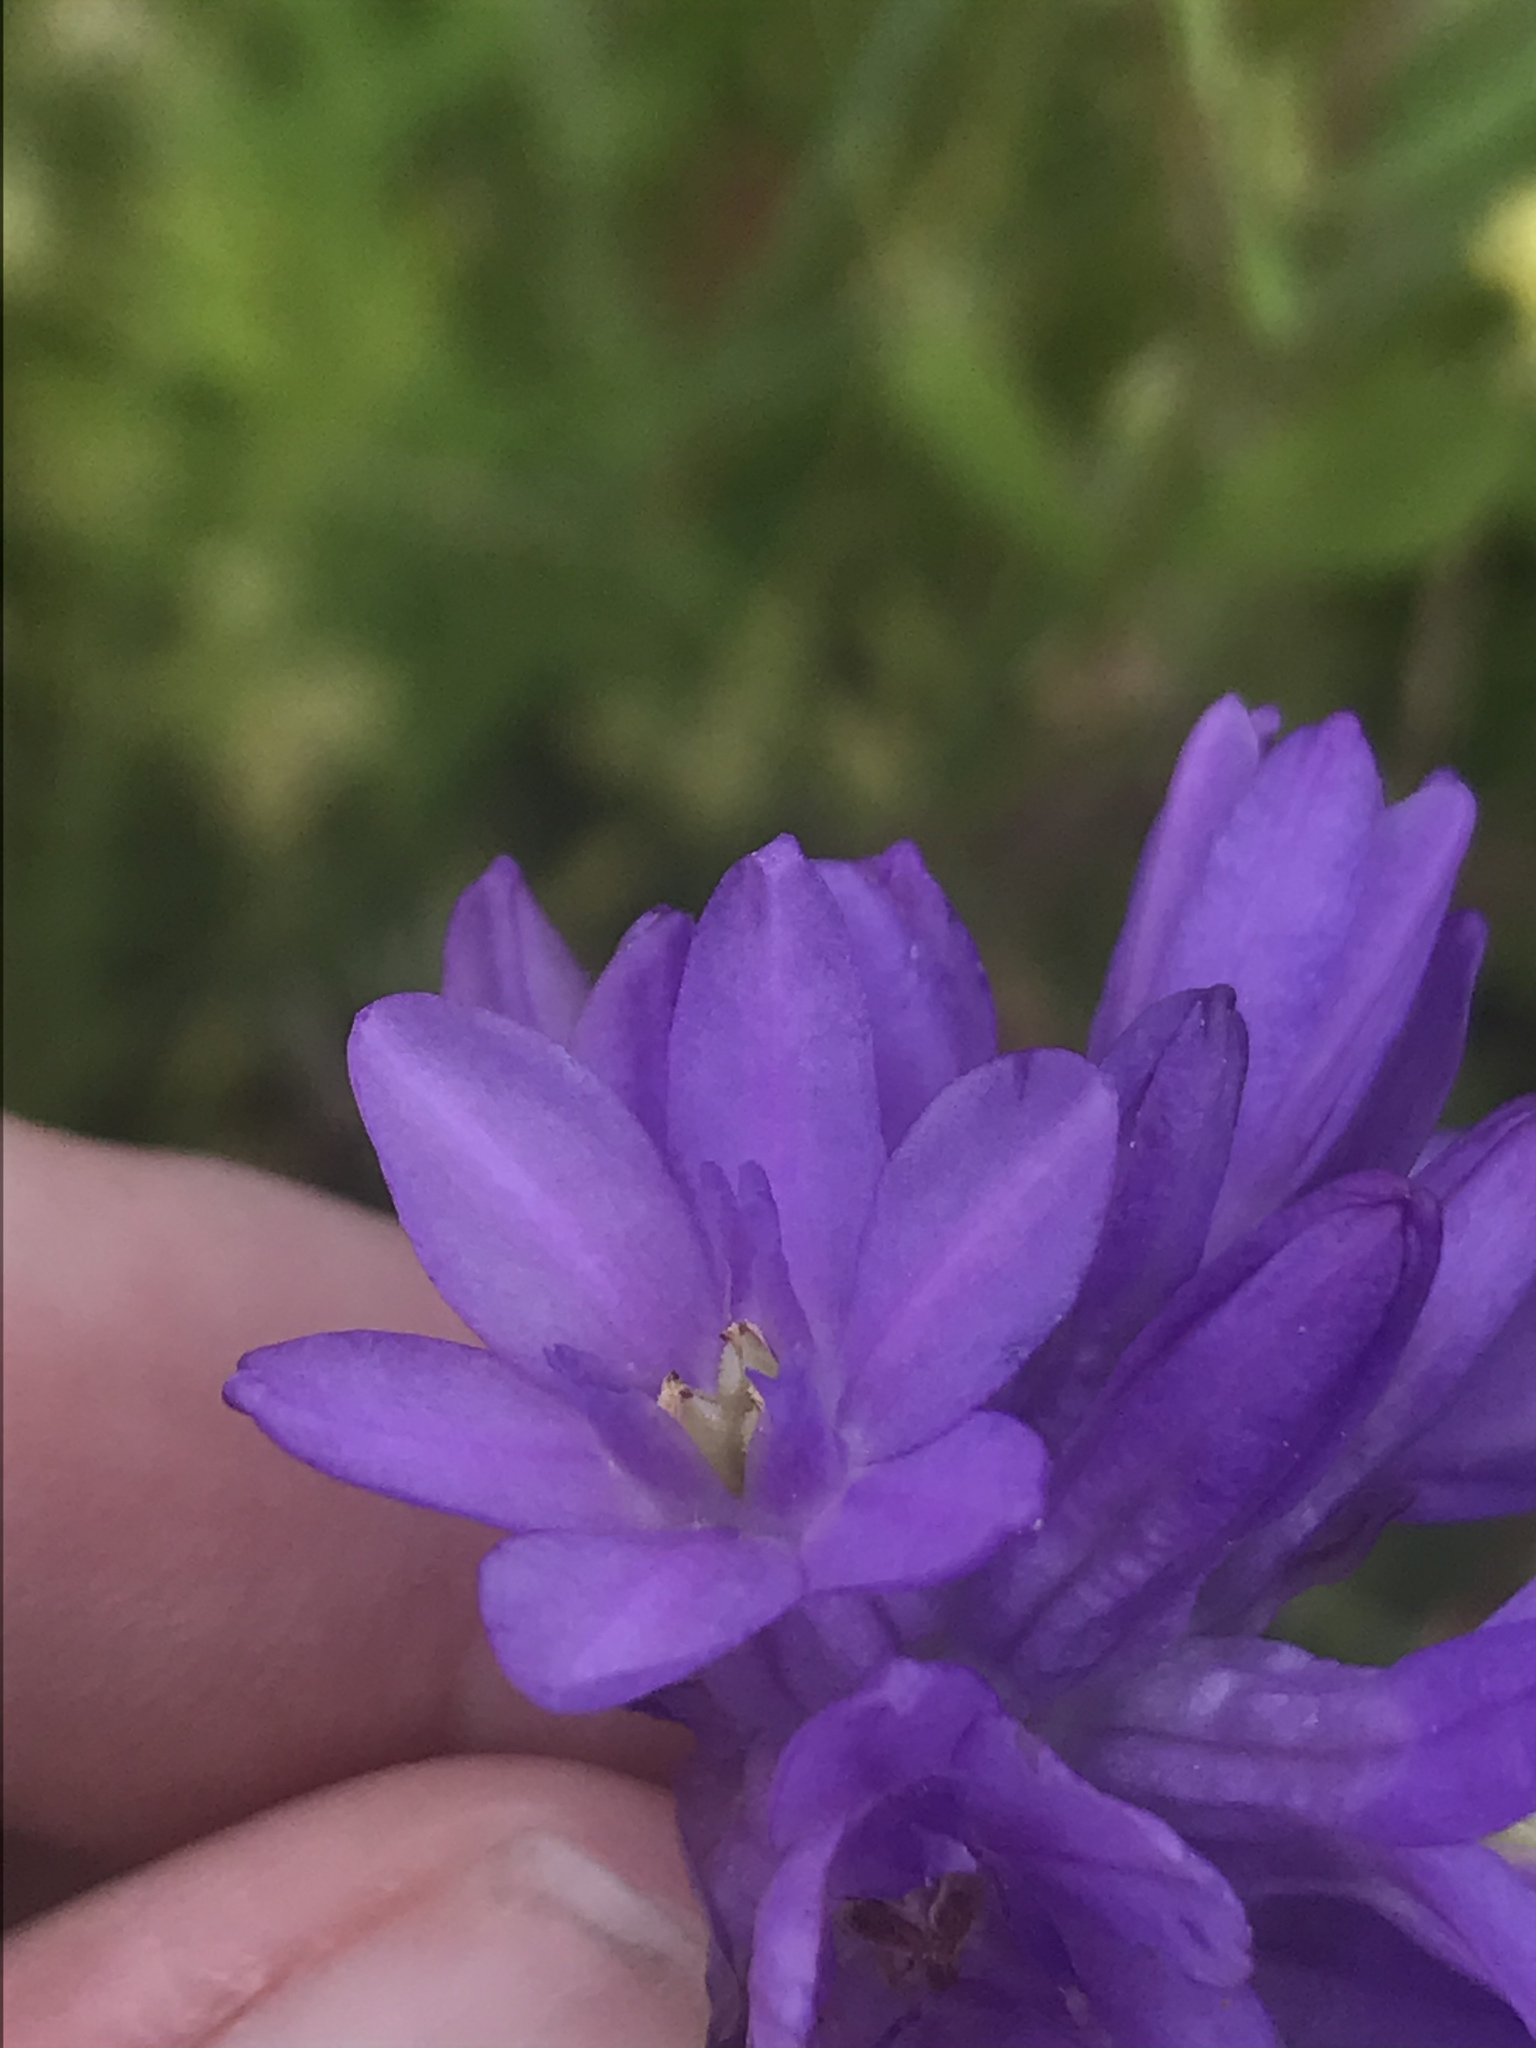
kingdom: Plantae
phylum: Tracheophyta
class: Liliopsida
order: Asparagales
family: Asparagaceae
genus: Dichelostemma
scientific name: Dichelostemma congestum
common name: Fork-tooth ookow
